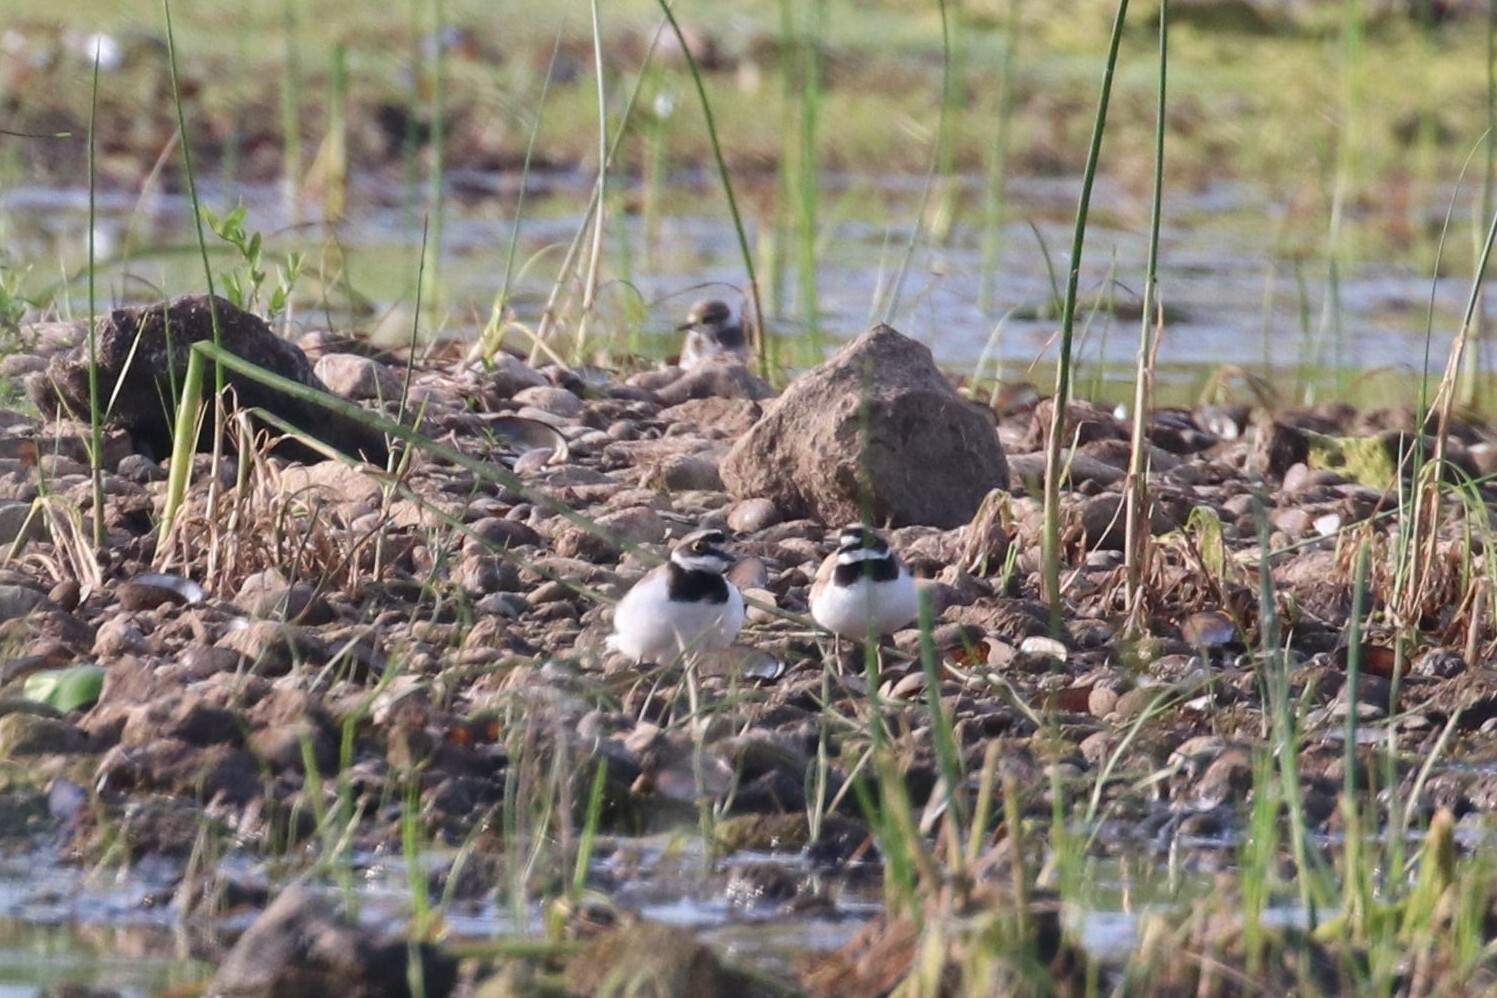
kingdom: Animalia
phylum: Chordata
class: Aves
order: Charadriiformes
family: Charadriidae
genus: Charadrius
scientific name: Charadrius dubius
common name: Little ringed plover
